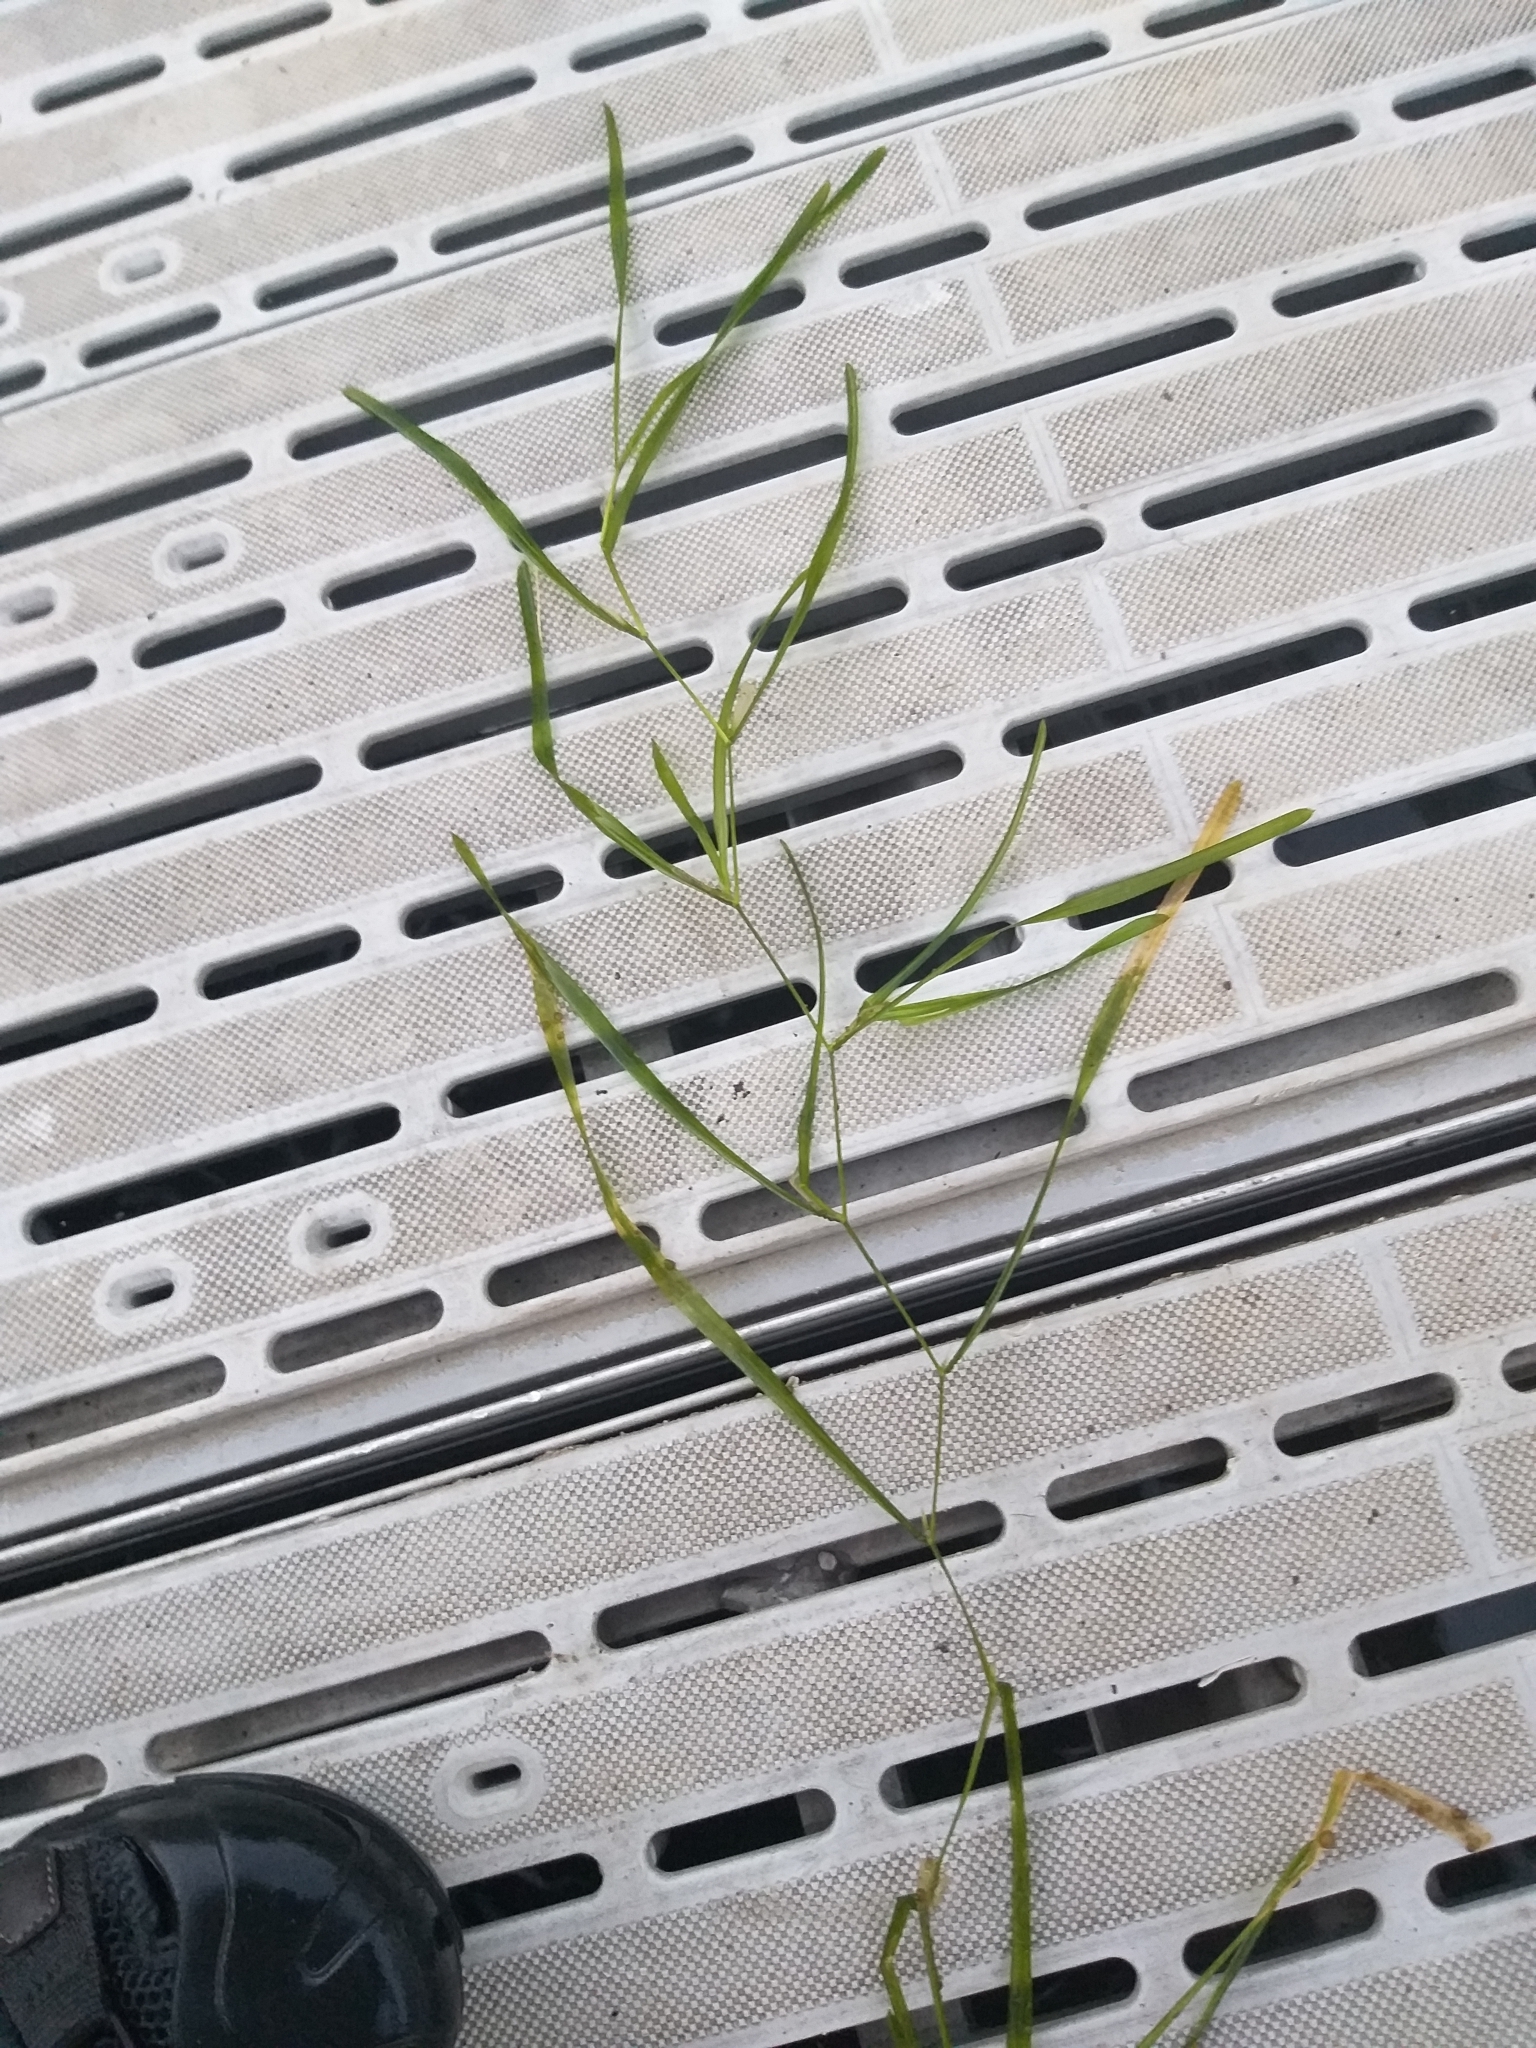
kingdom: Plantae
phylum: Tracheophyta
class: Liliopsida
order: Alismatales
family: Potamogetonaceae
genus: Potamogeton
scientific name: Potamogeton zosteriformis
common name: Eelgrass pondweed
